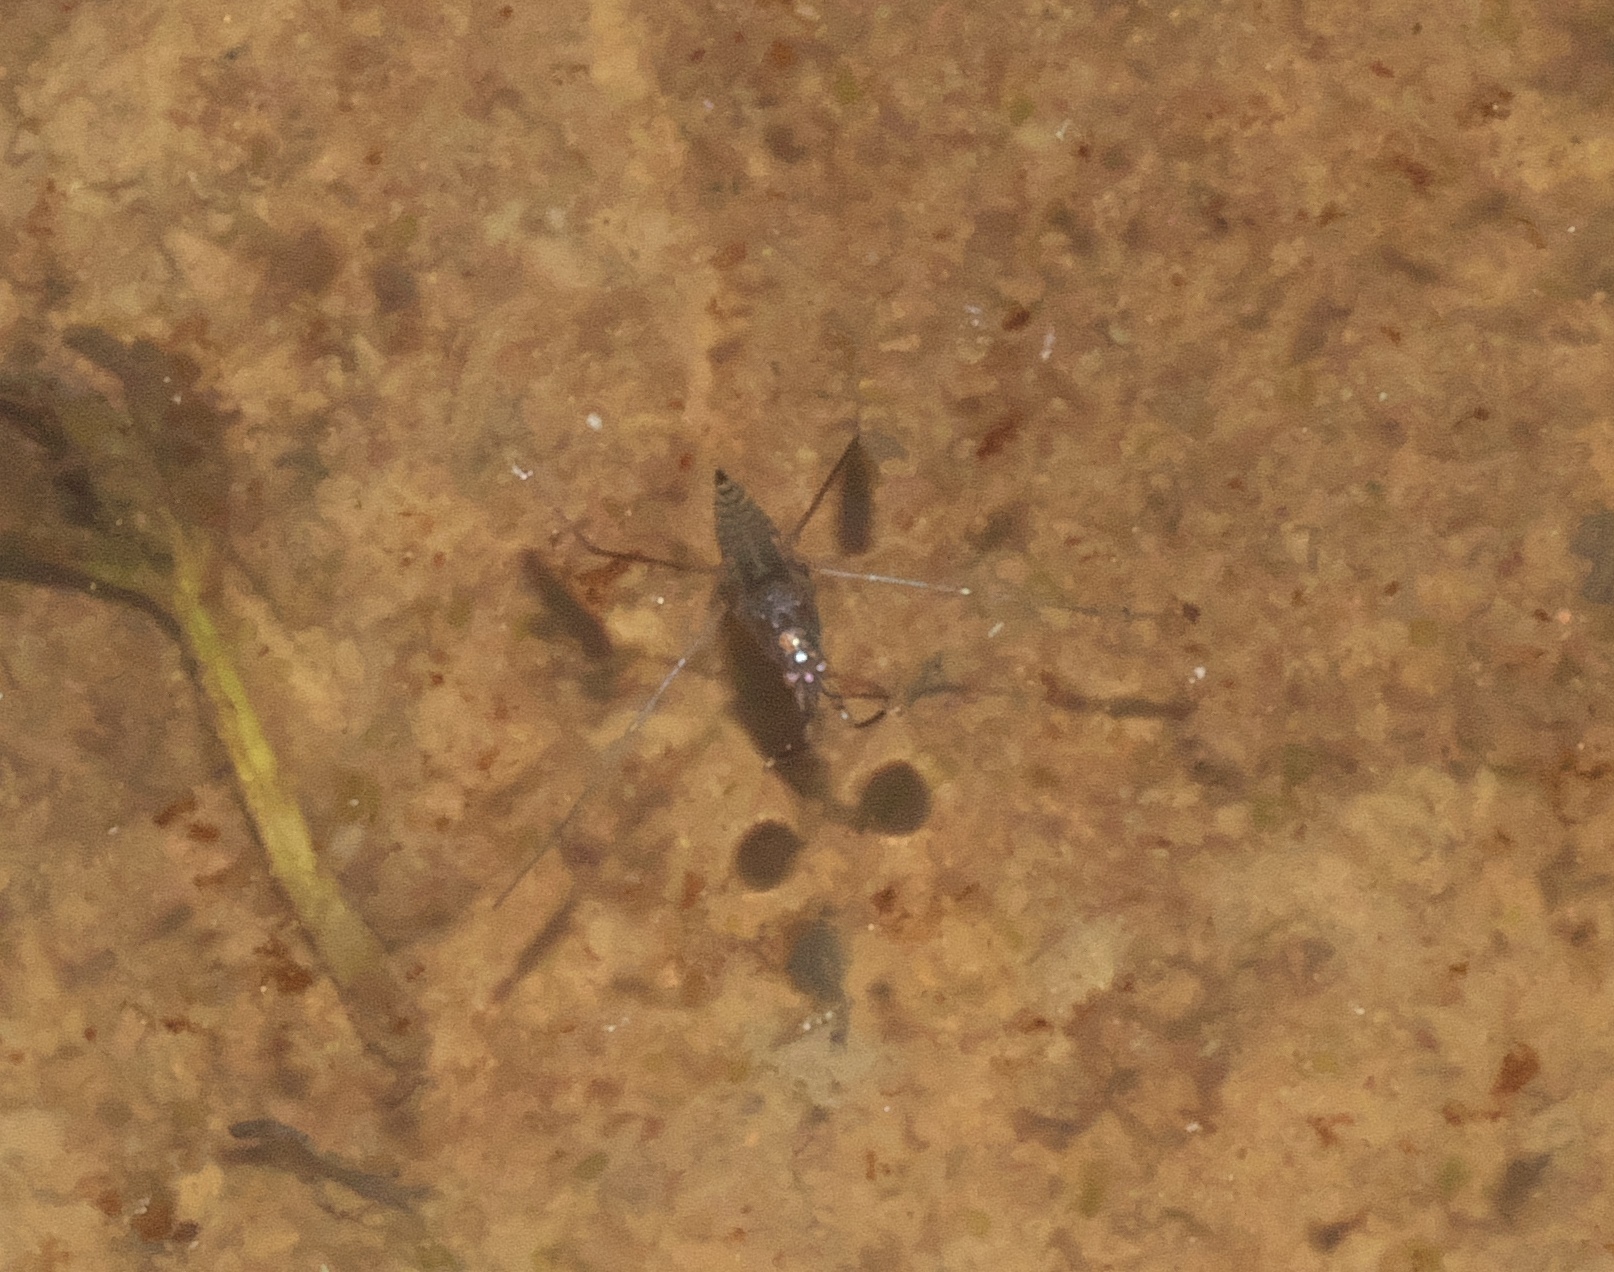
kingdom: Animalia
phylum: Arthropoda
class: Insecta
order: Hemiptera
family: Gerridae
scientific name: Gerridae
